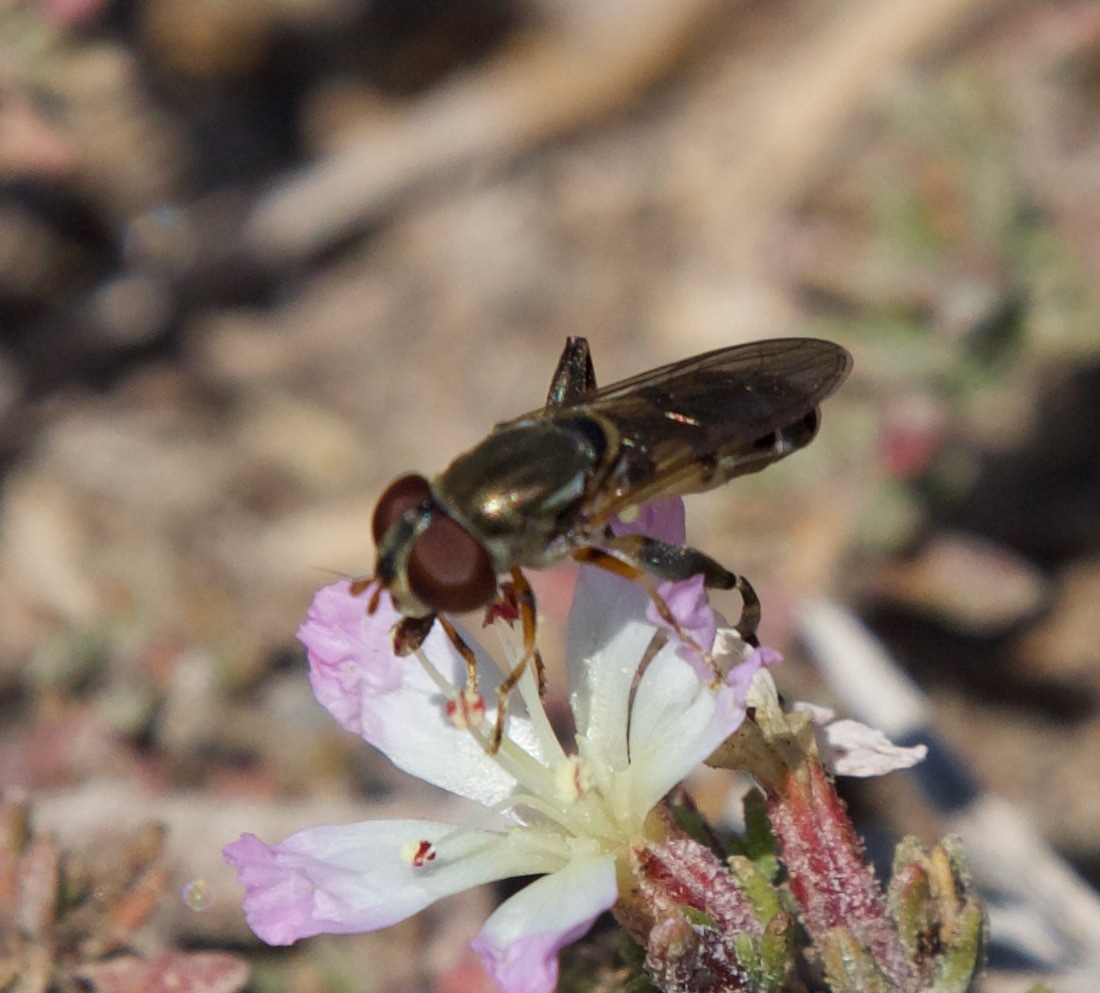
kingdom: Animalia
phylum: Arthropoda
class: Insecta
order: Diptera
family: Syrphidae
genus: Tropidia
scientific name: Tropidia flavimanus
